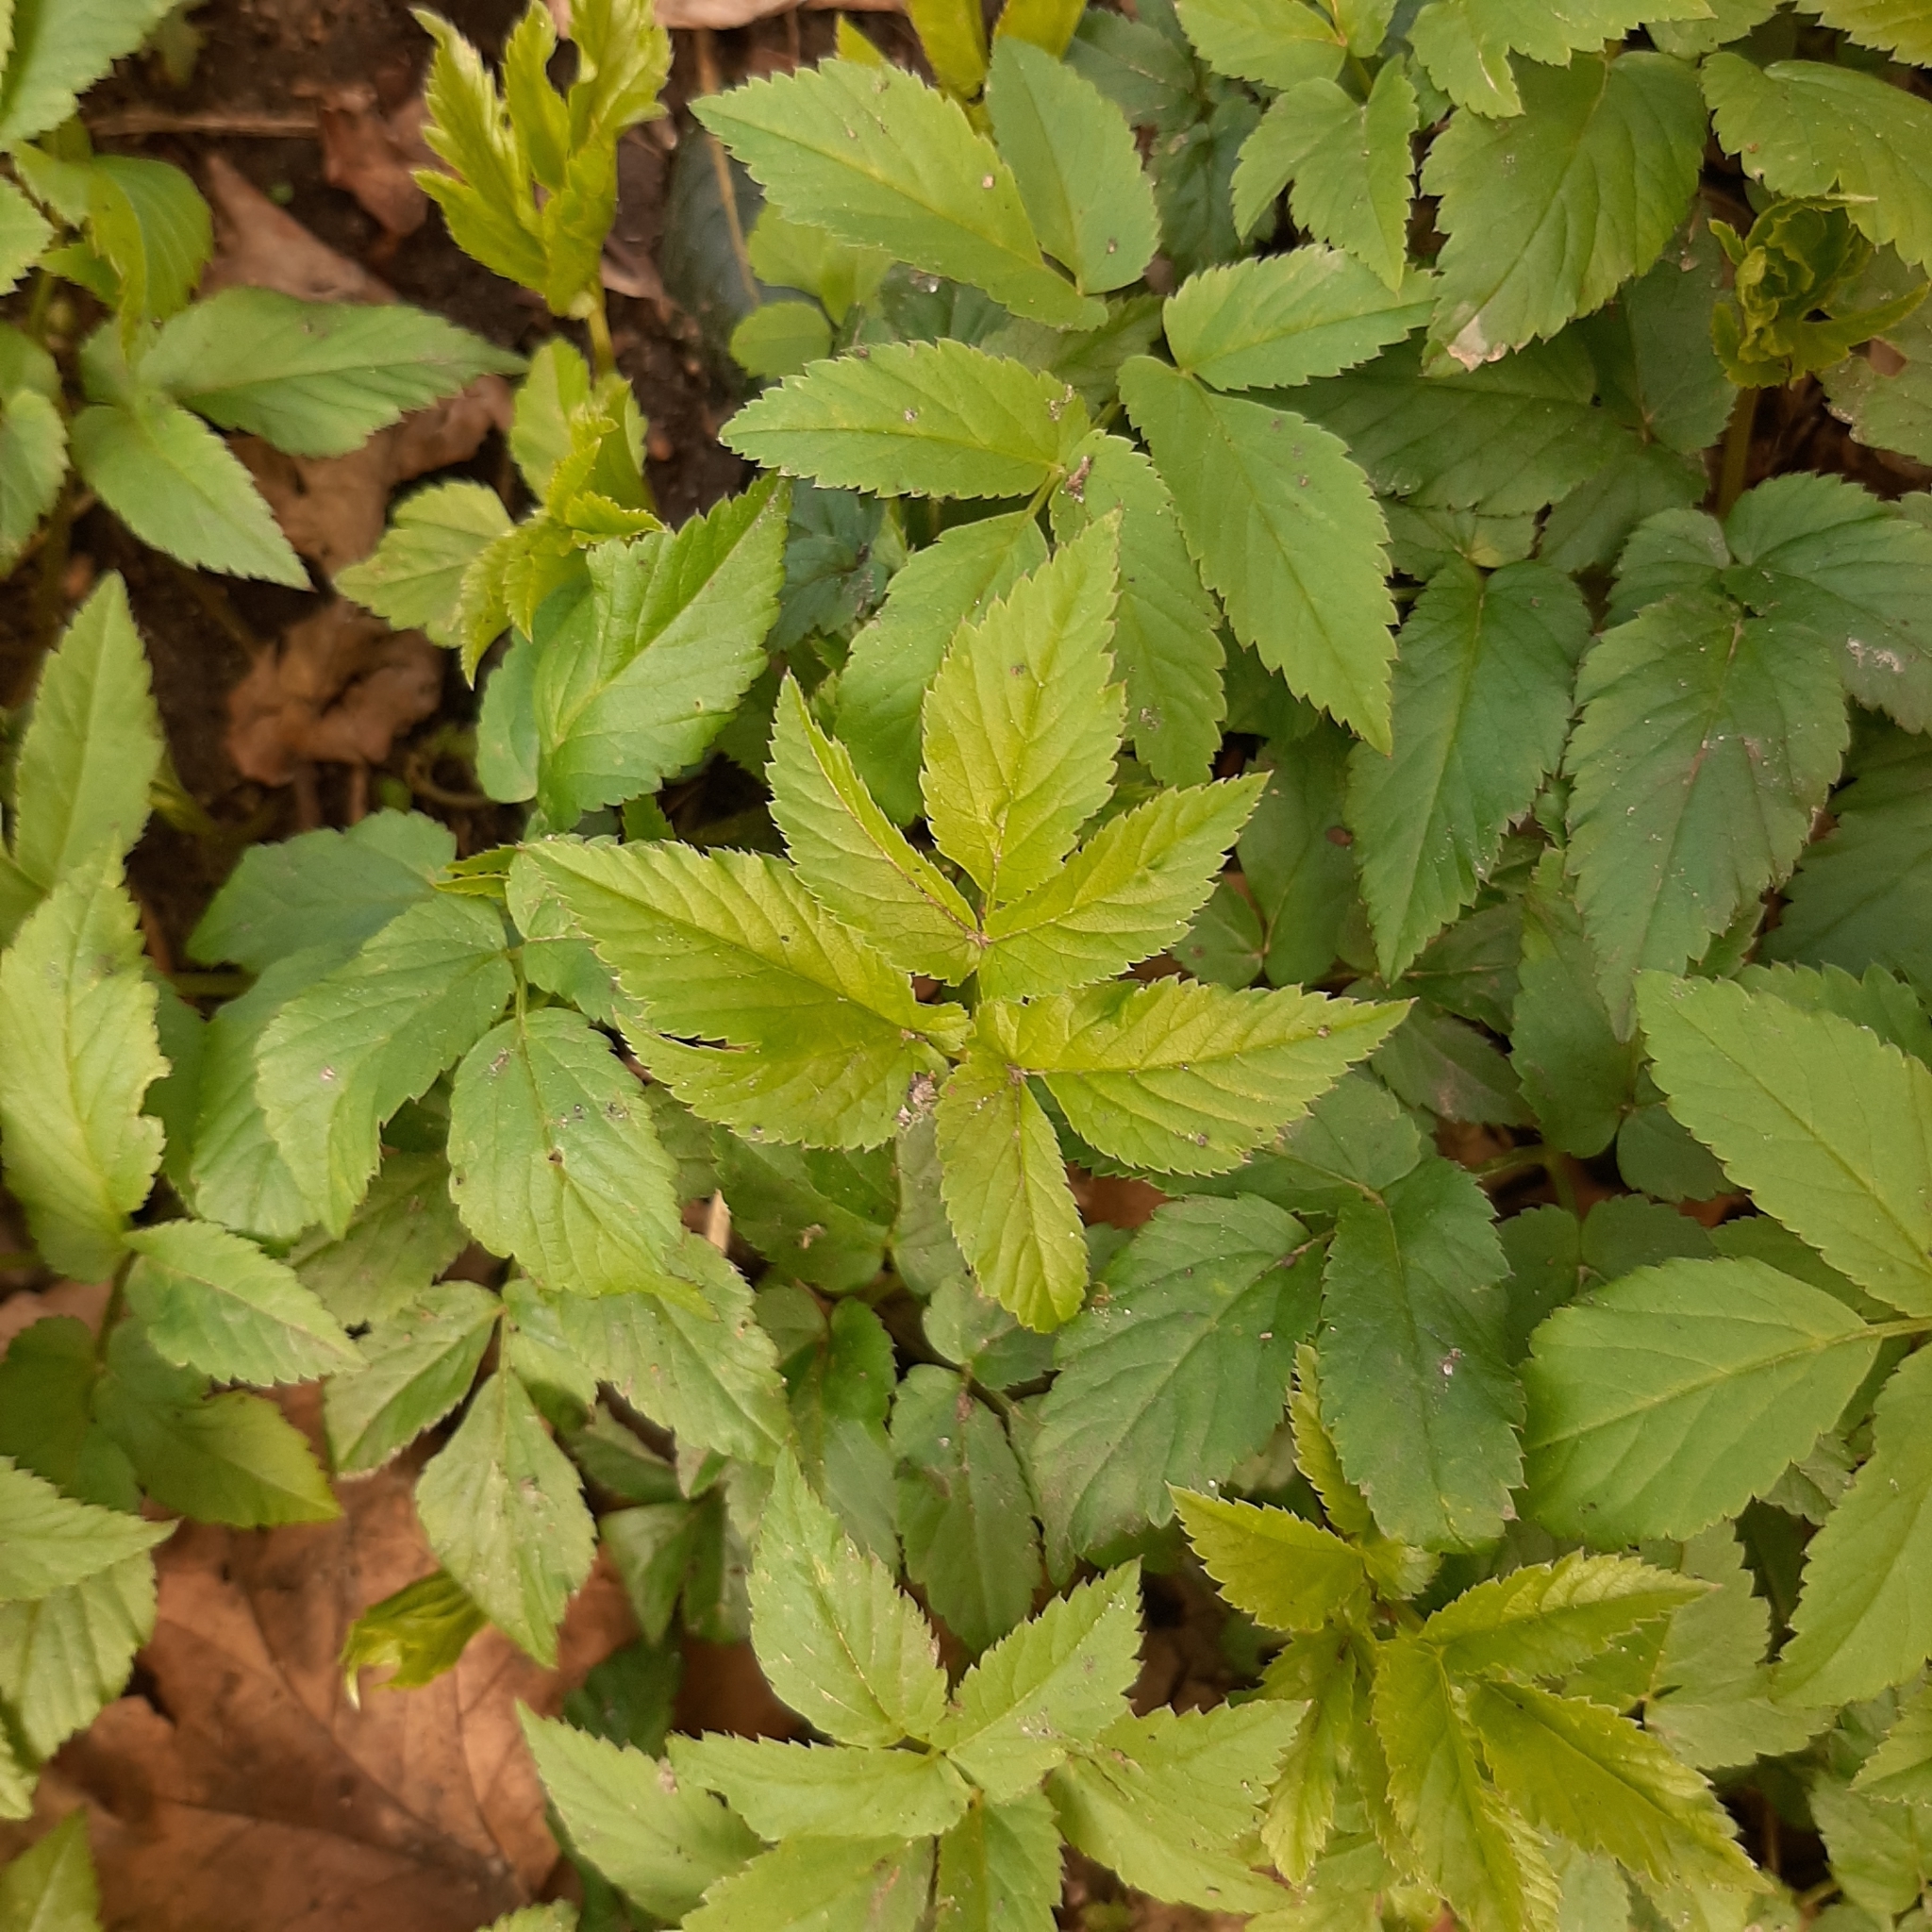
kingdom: Plantae
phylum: Tracheophyta
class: Magnoliopsida
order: Apiales
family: Apiaceae
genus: Aegopodium
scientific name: Aegopodium podagraria
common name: Ground-elder
